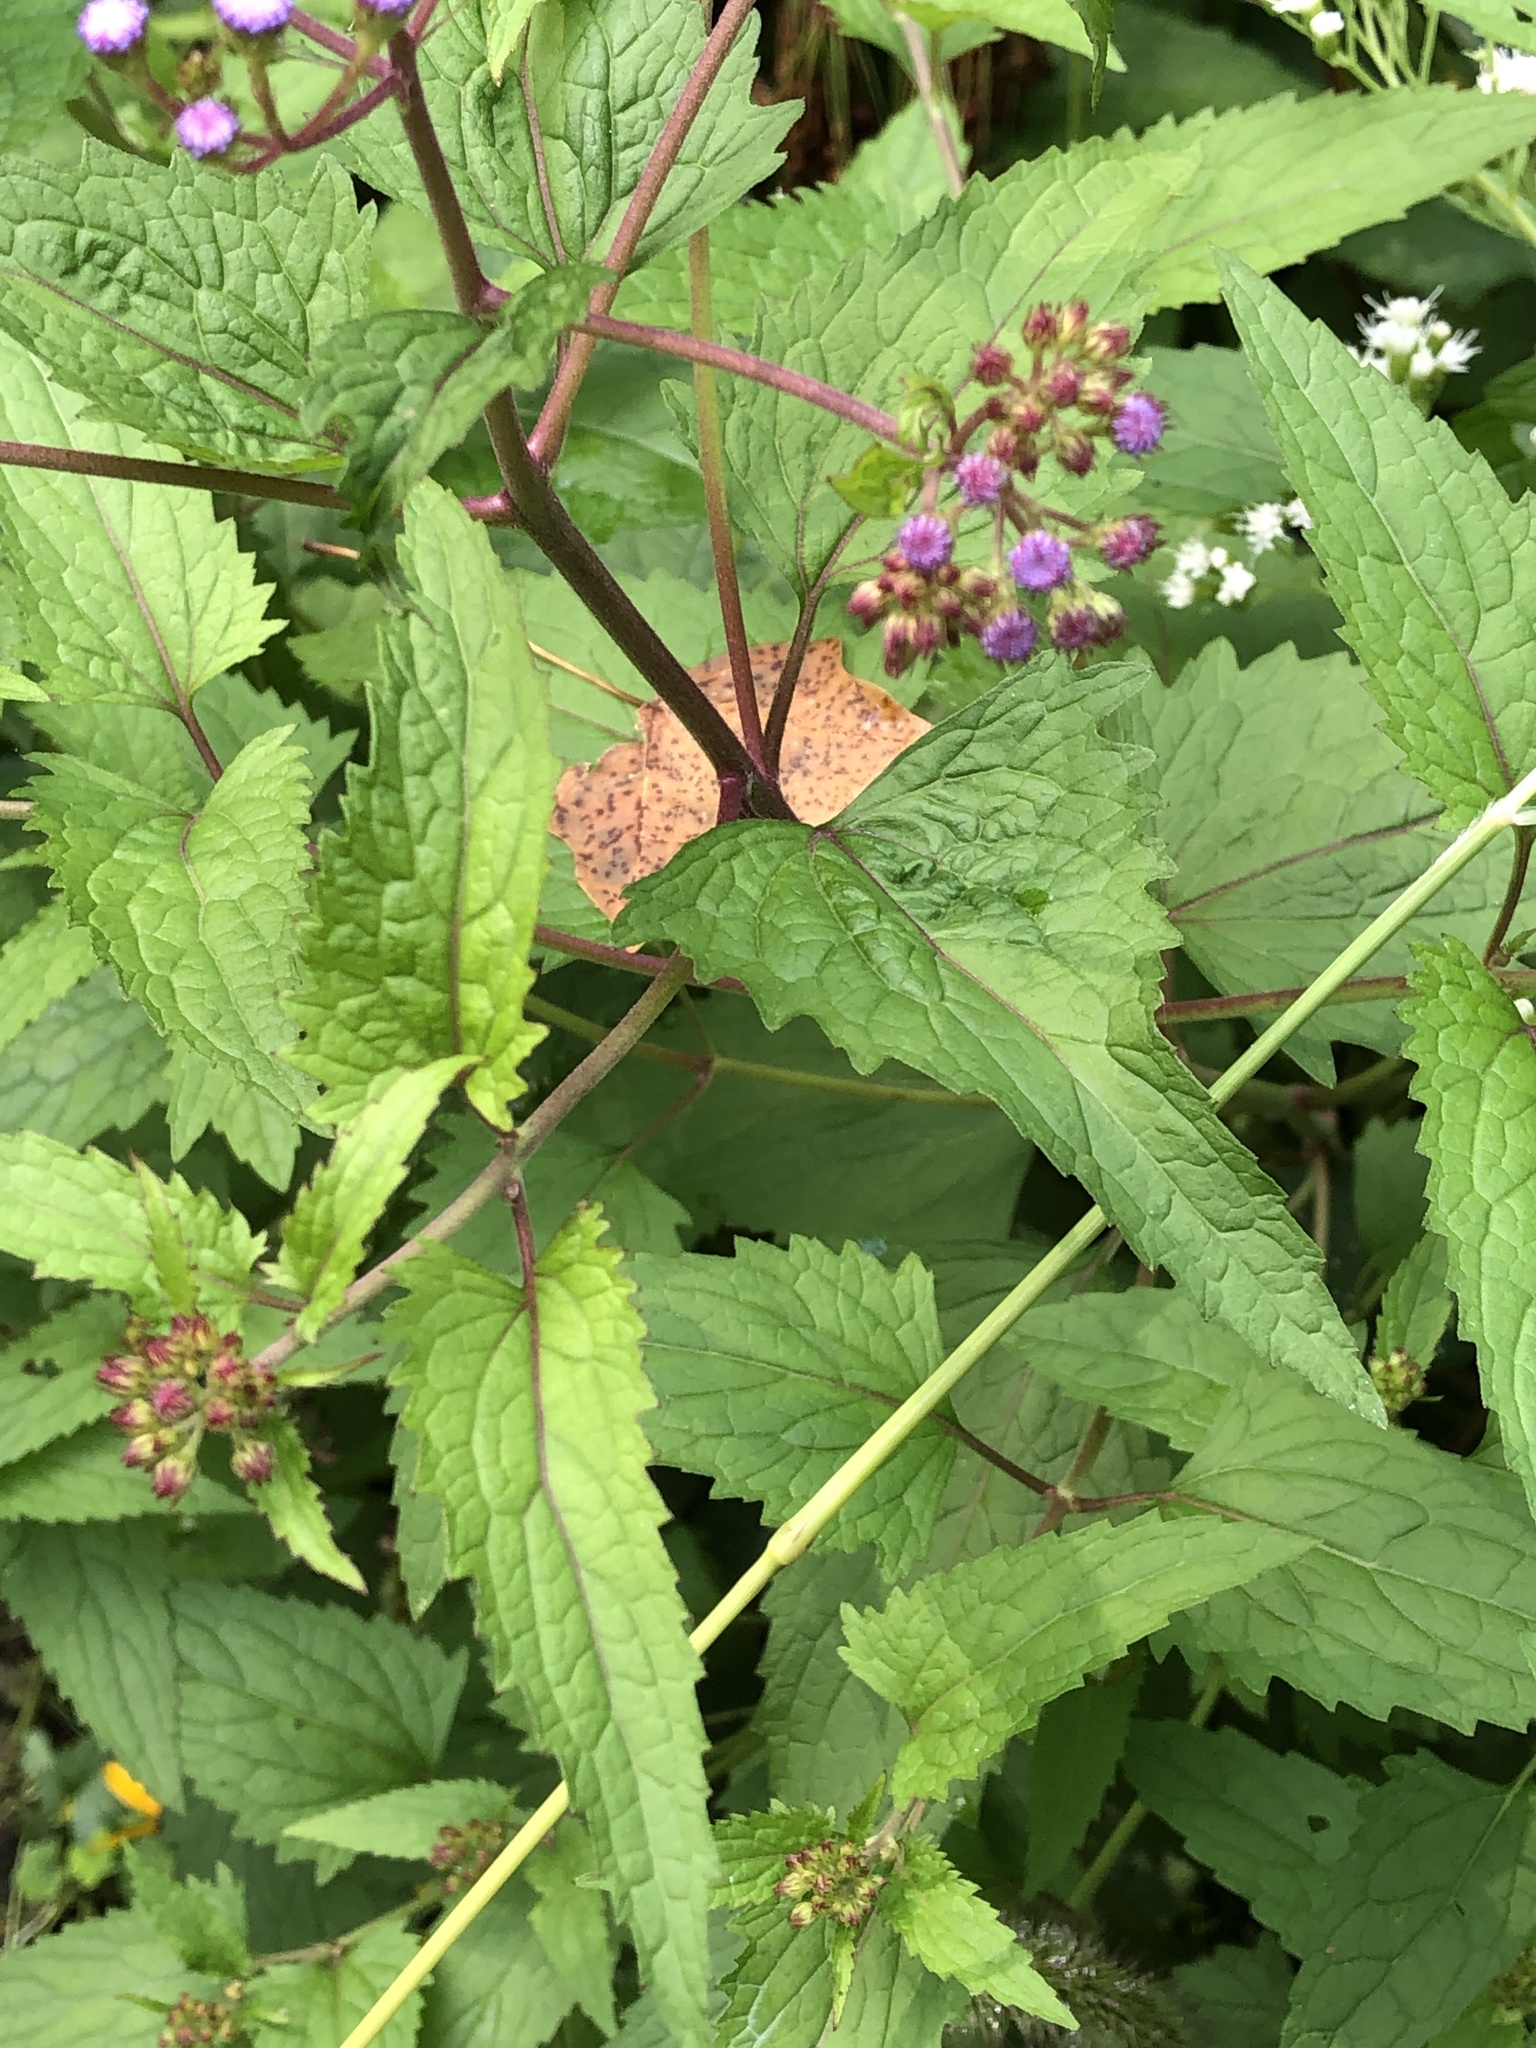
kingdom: Plantae
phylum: Tracheophyta
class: Magnoliopsida
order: Asterales
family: Asteraceae
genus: Conoclinium
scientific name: Conoclinium coelestinum
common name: Blue mistflower
